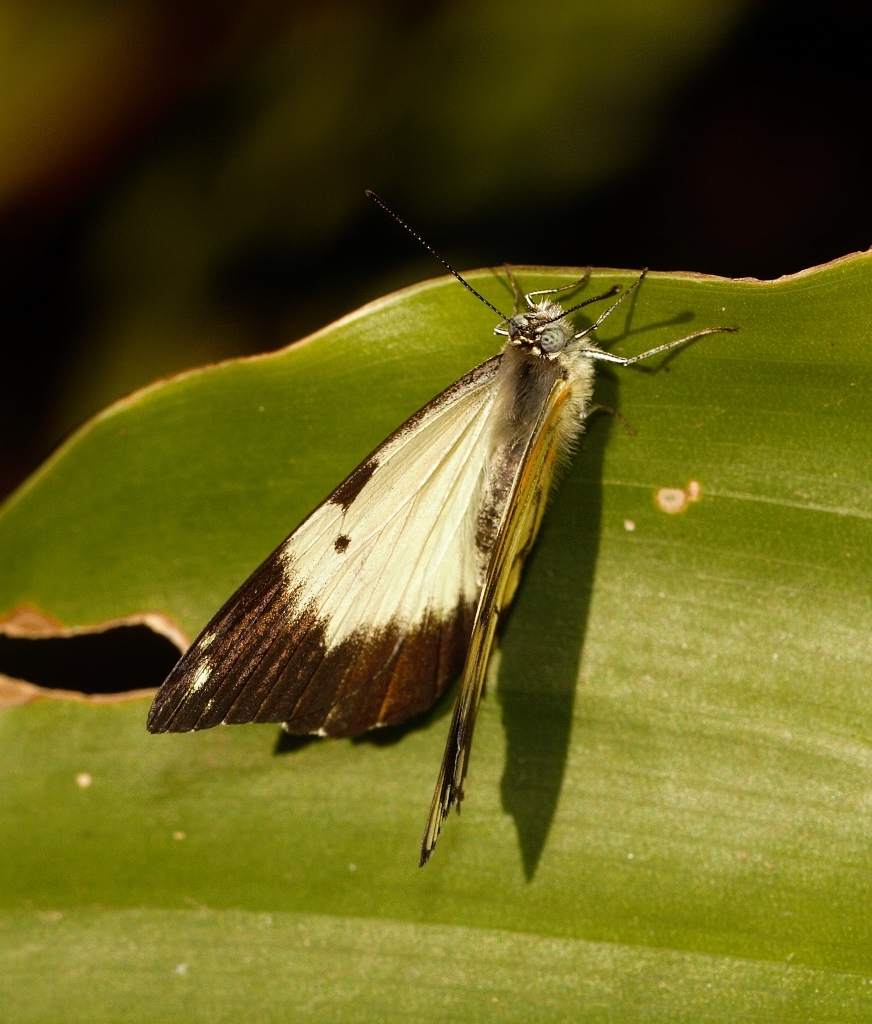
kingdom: Animalia
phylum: Arthropoda
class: Insecta
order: Lepidoptera
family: Pieridae
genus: Belenois
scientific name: Belenois creona
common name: African caper white
